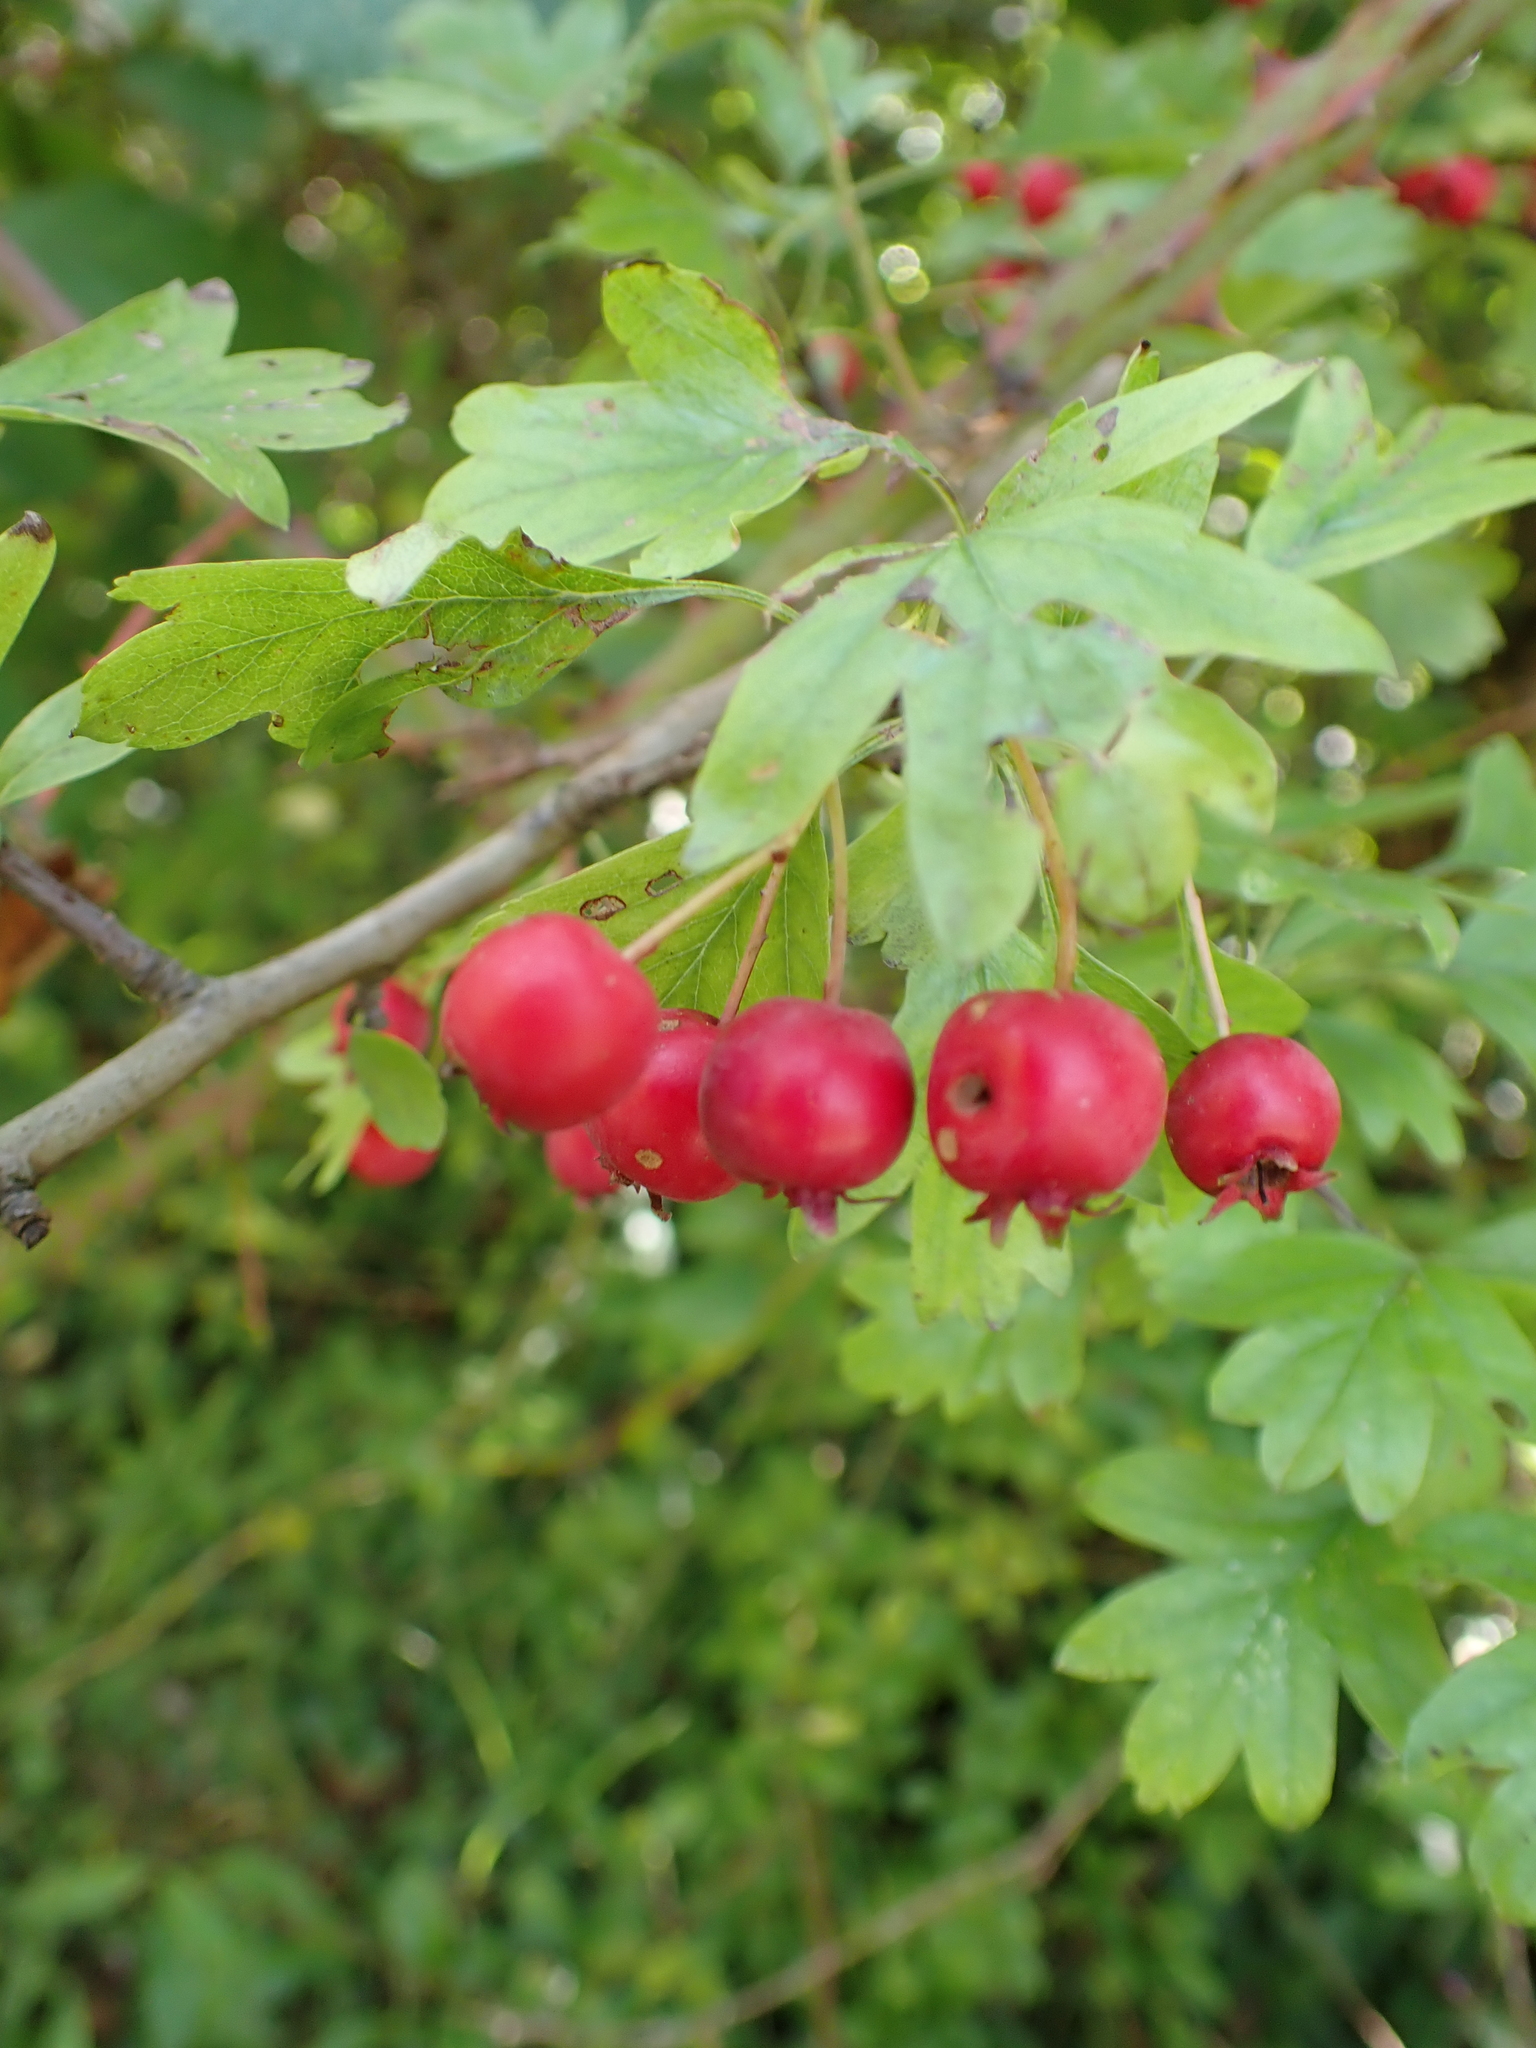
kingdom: Plantae
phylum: Tracheophyta
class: Magnoliopsida
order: Rosales
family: Rosaceae
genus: Crataegus
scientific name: Crataegus monogyna
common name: Hawthorn
